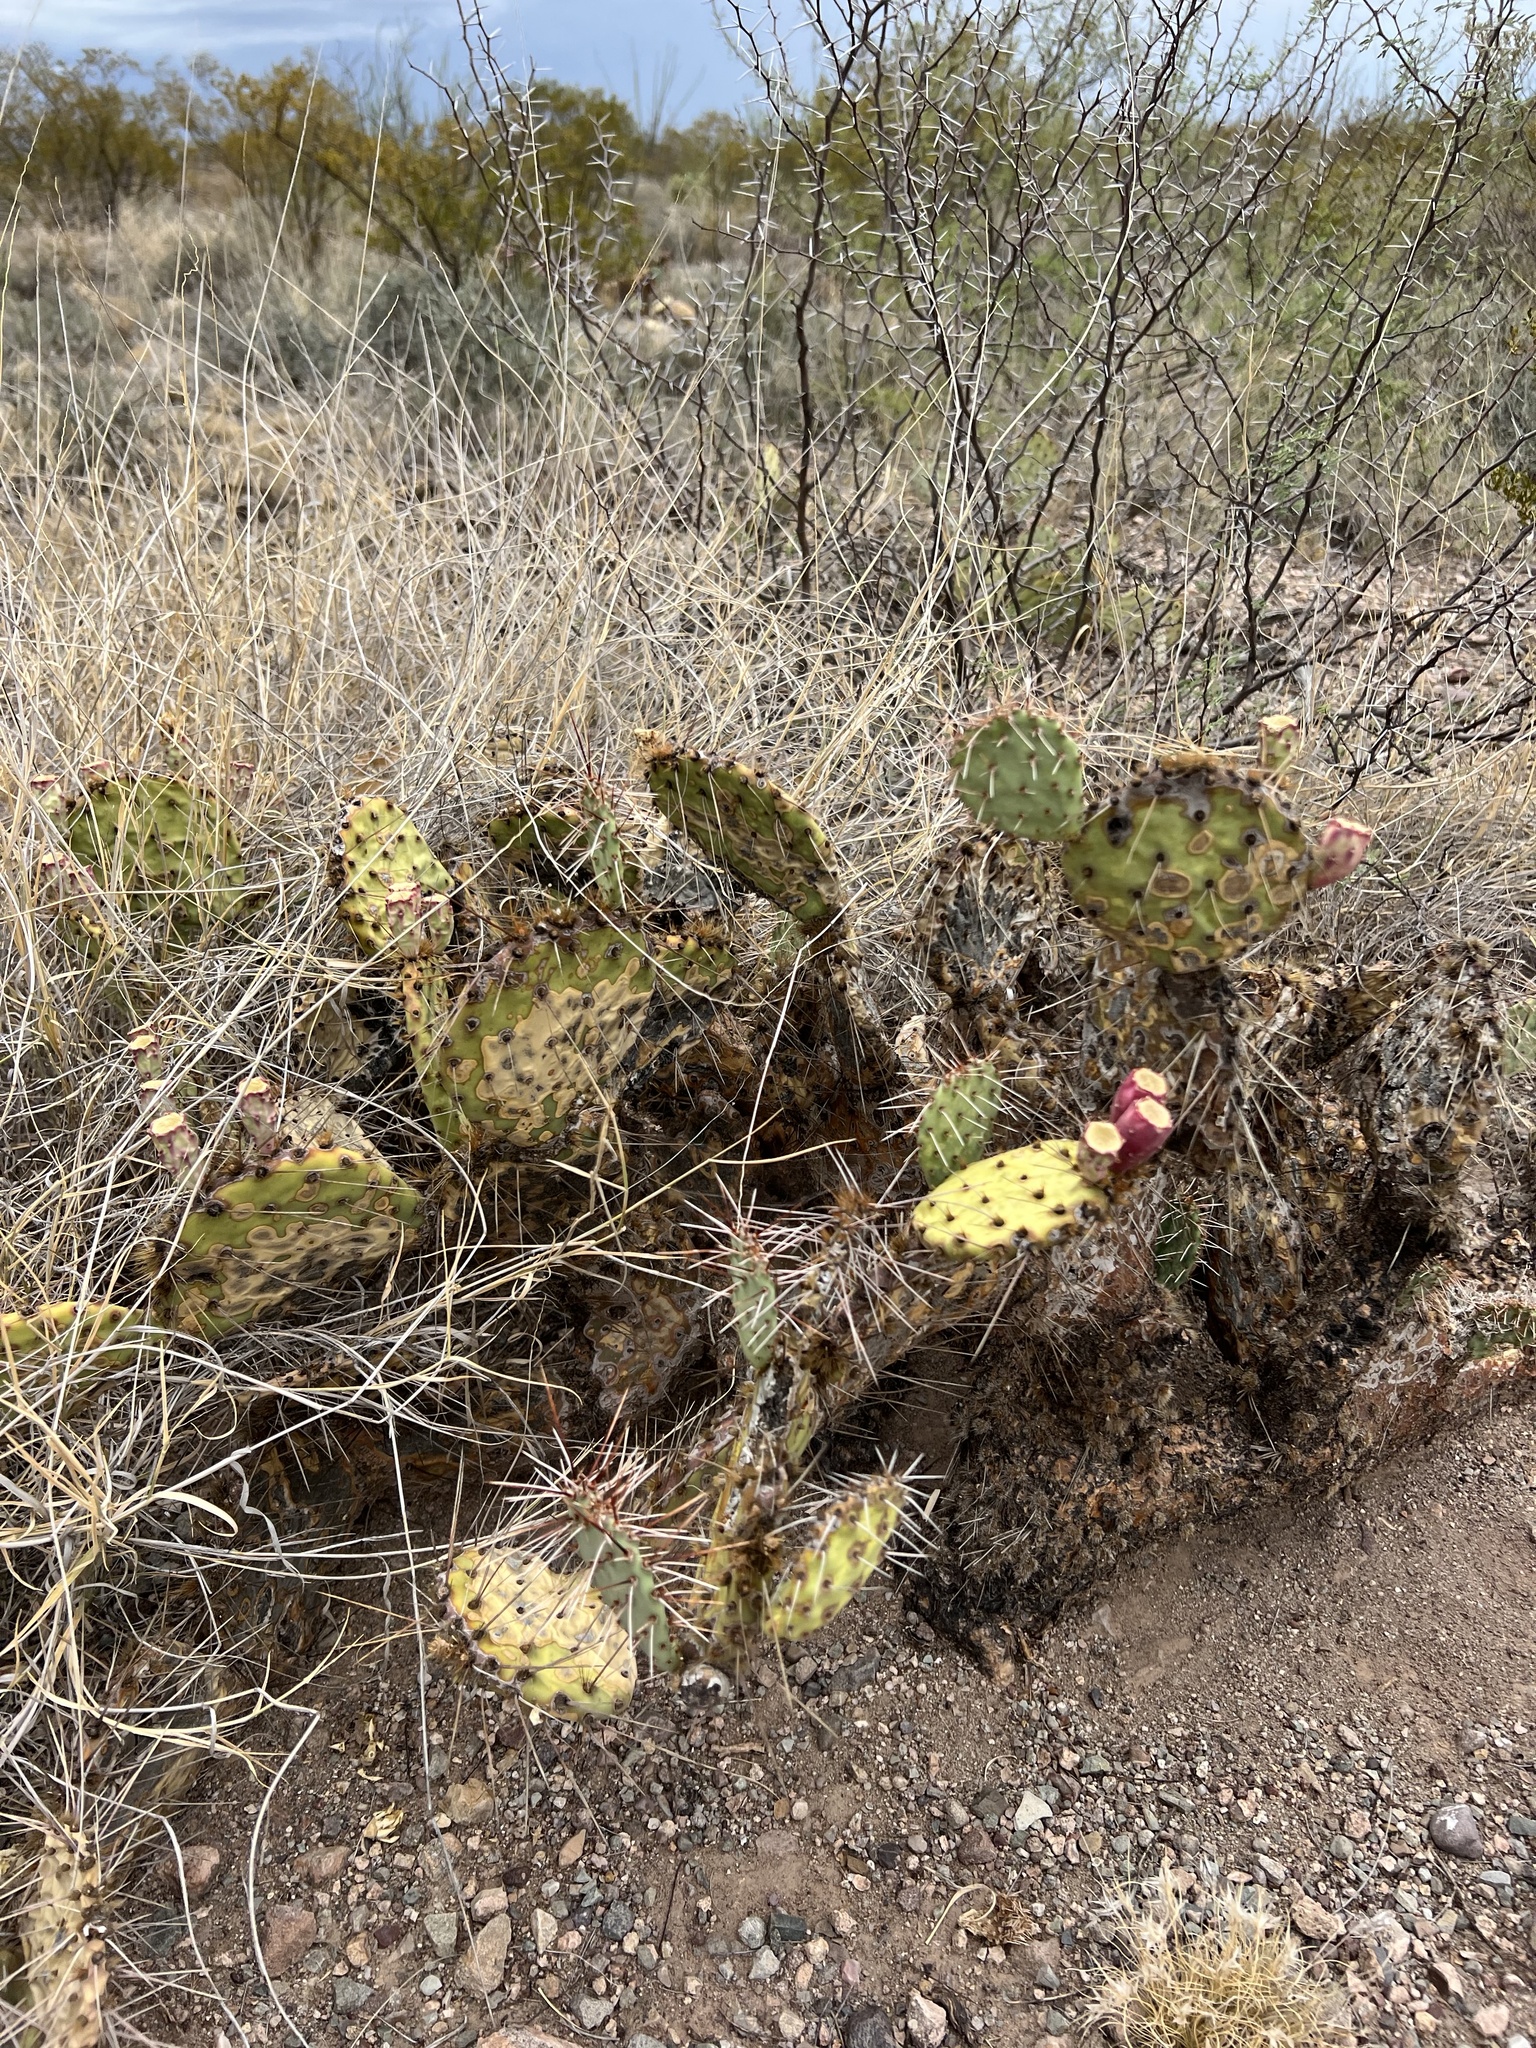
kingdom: Plantae
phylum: Tracheophyta
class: Magnoliopsida
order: Caryophyllales
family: Cactaceae
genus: Opuntia
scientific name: Opuntia phaeacantha
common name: New mexico prickly-pear
